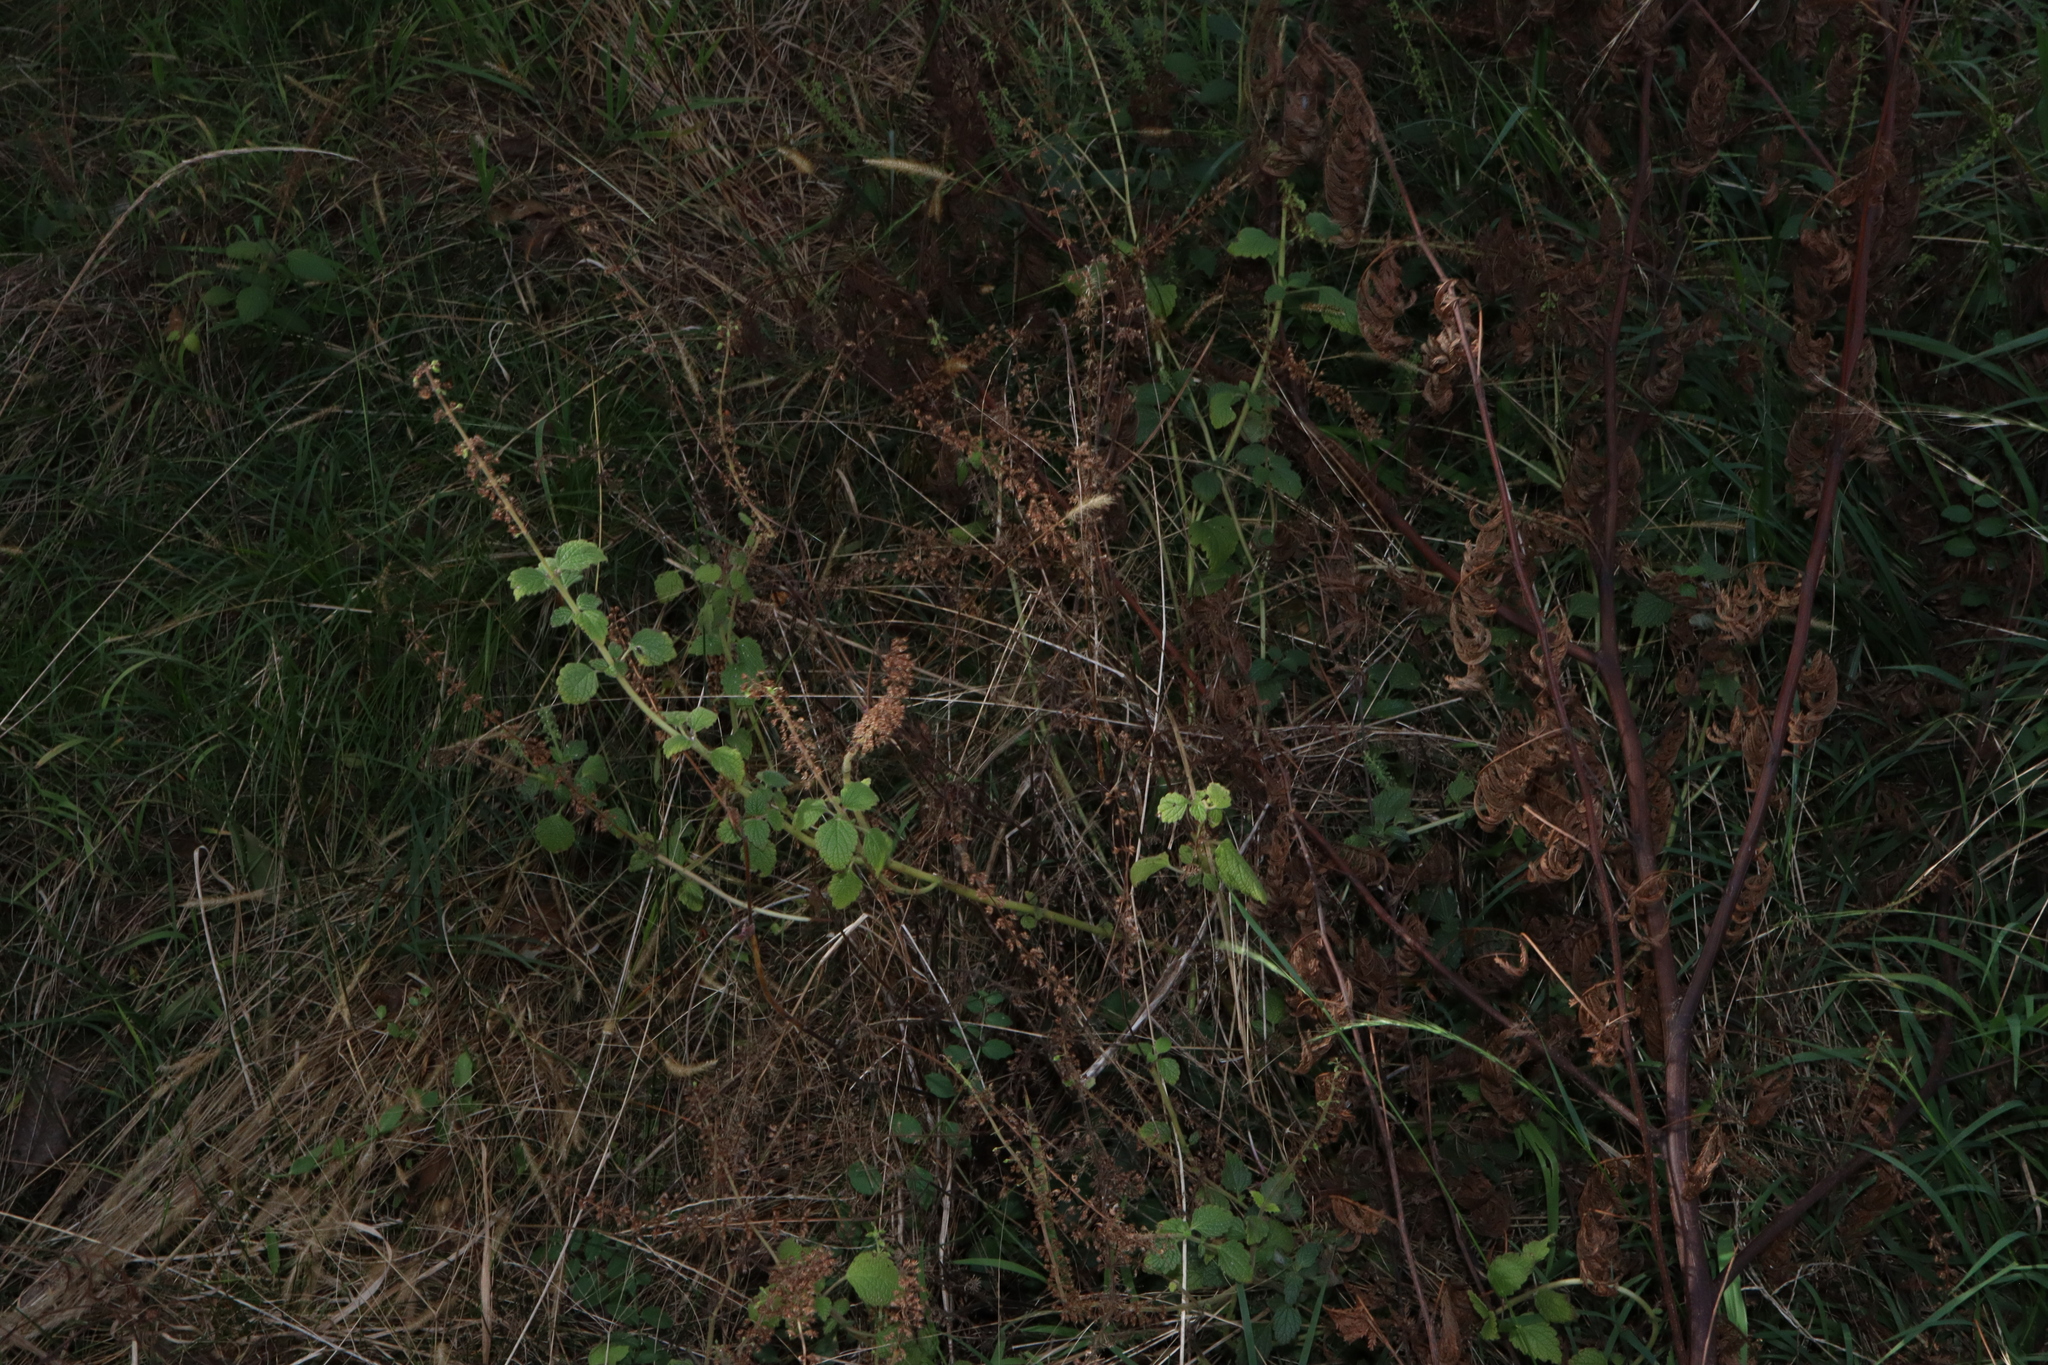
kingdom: Plantae
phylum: Tracheophyta
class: Magnoliopsida
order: Lamiales
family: Lamiaceae
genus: Coleus
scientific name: Coleus australis
